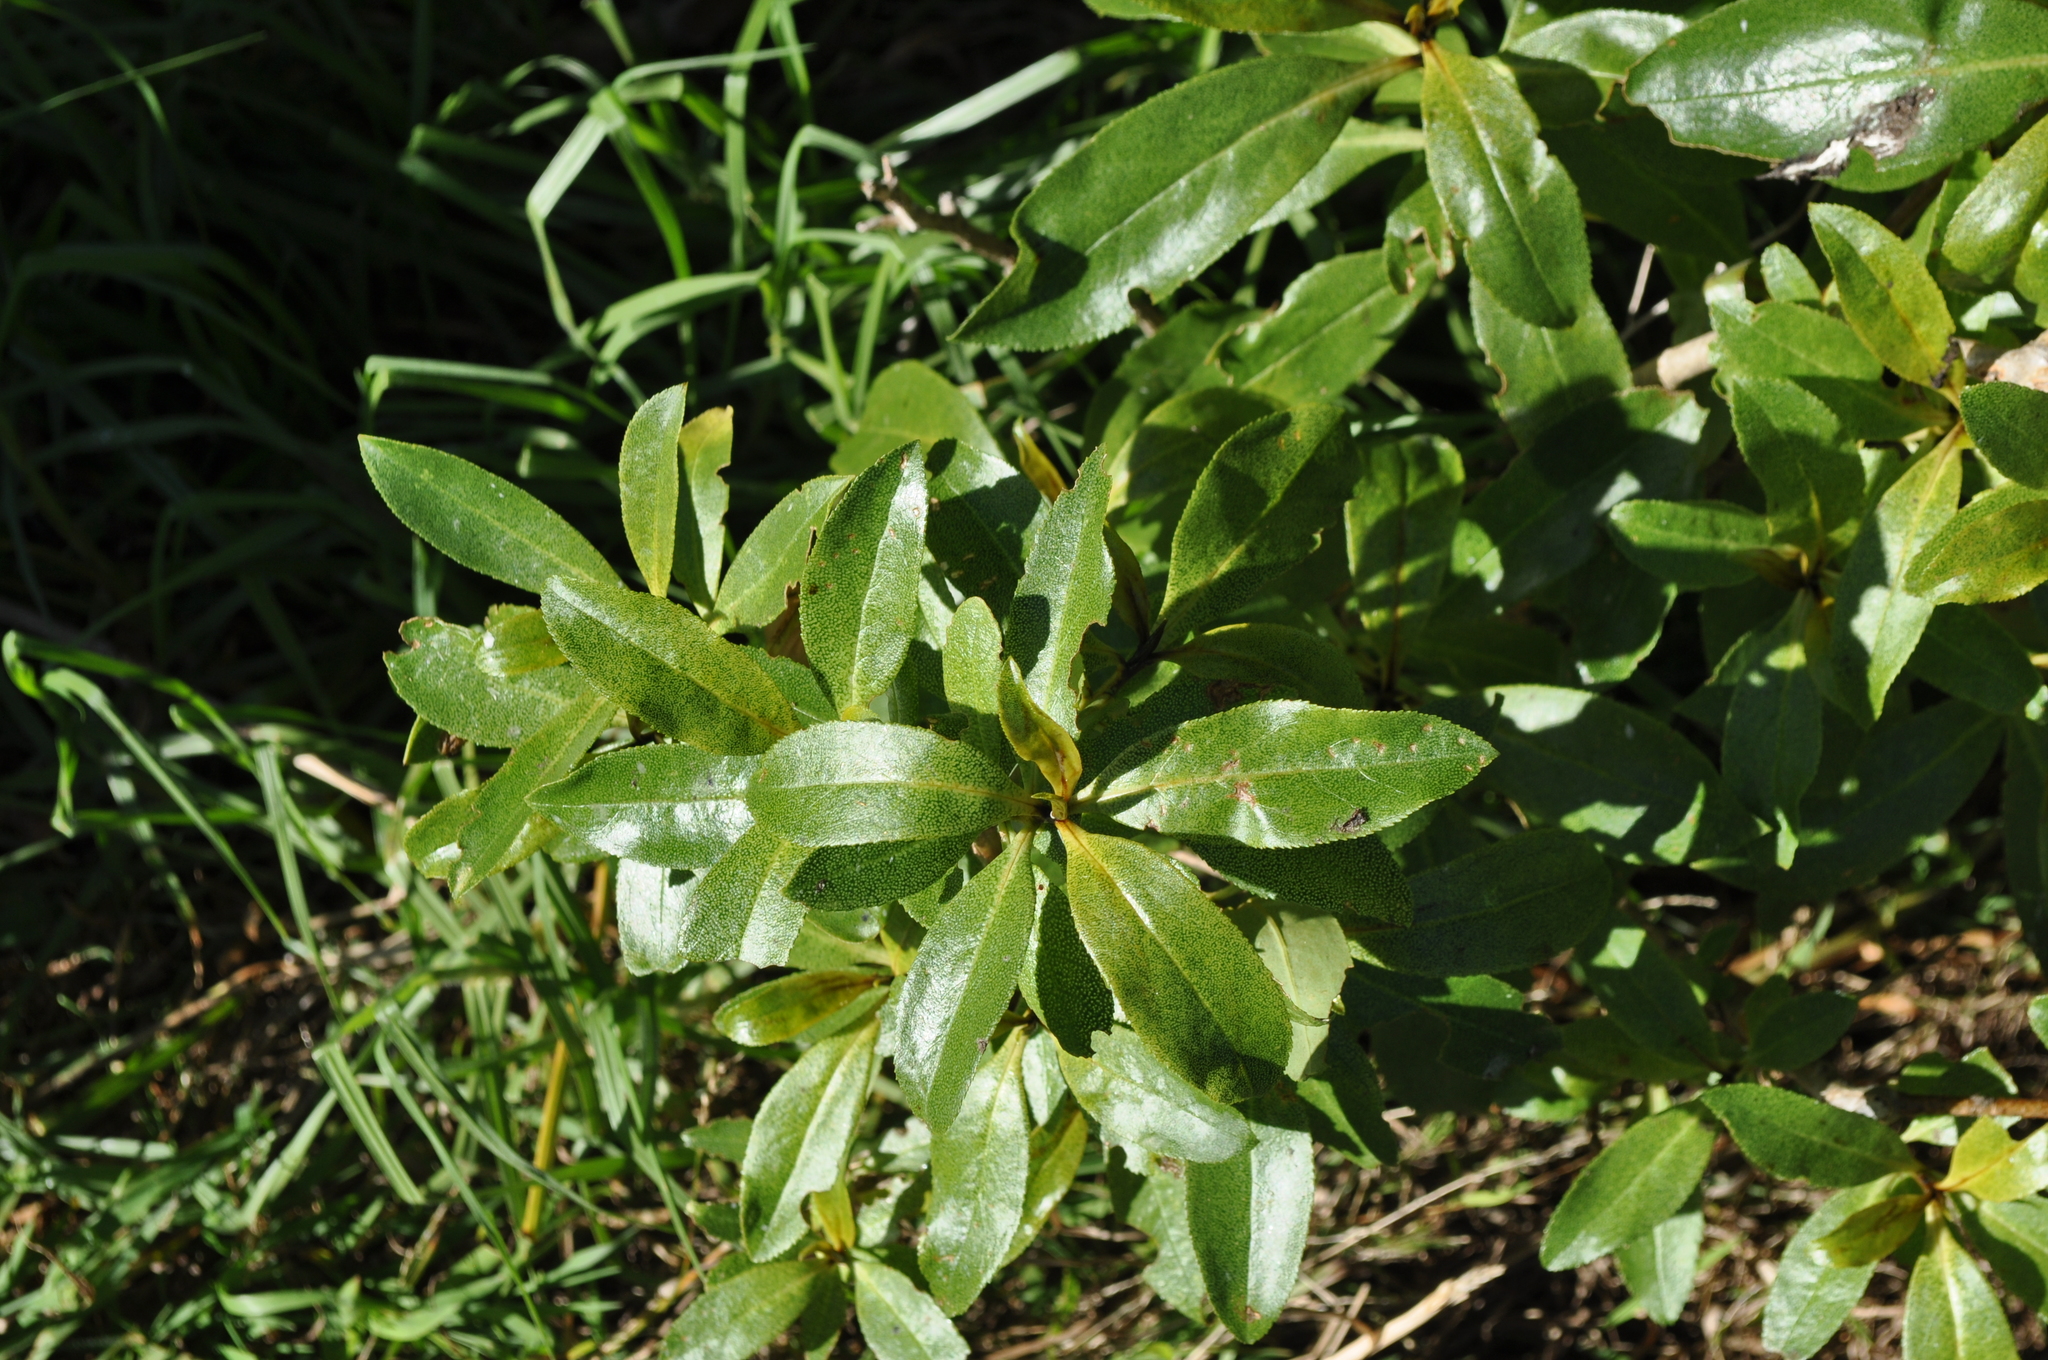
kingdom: Plantae
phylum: Tracheophyta
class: Magnoliopsida
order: Lamiales
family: Scrophulariaceae
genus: Myoporum
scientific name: Myoporum laetum
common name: Ngaio tree
